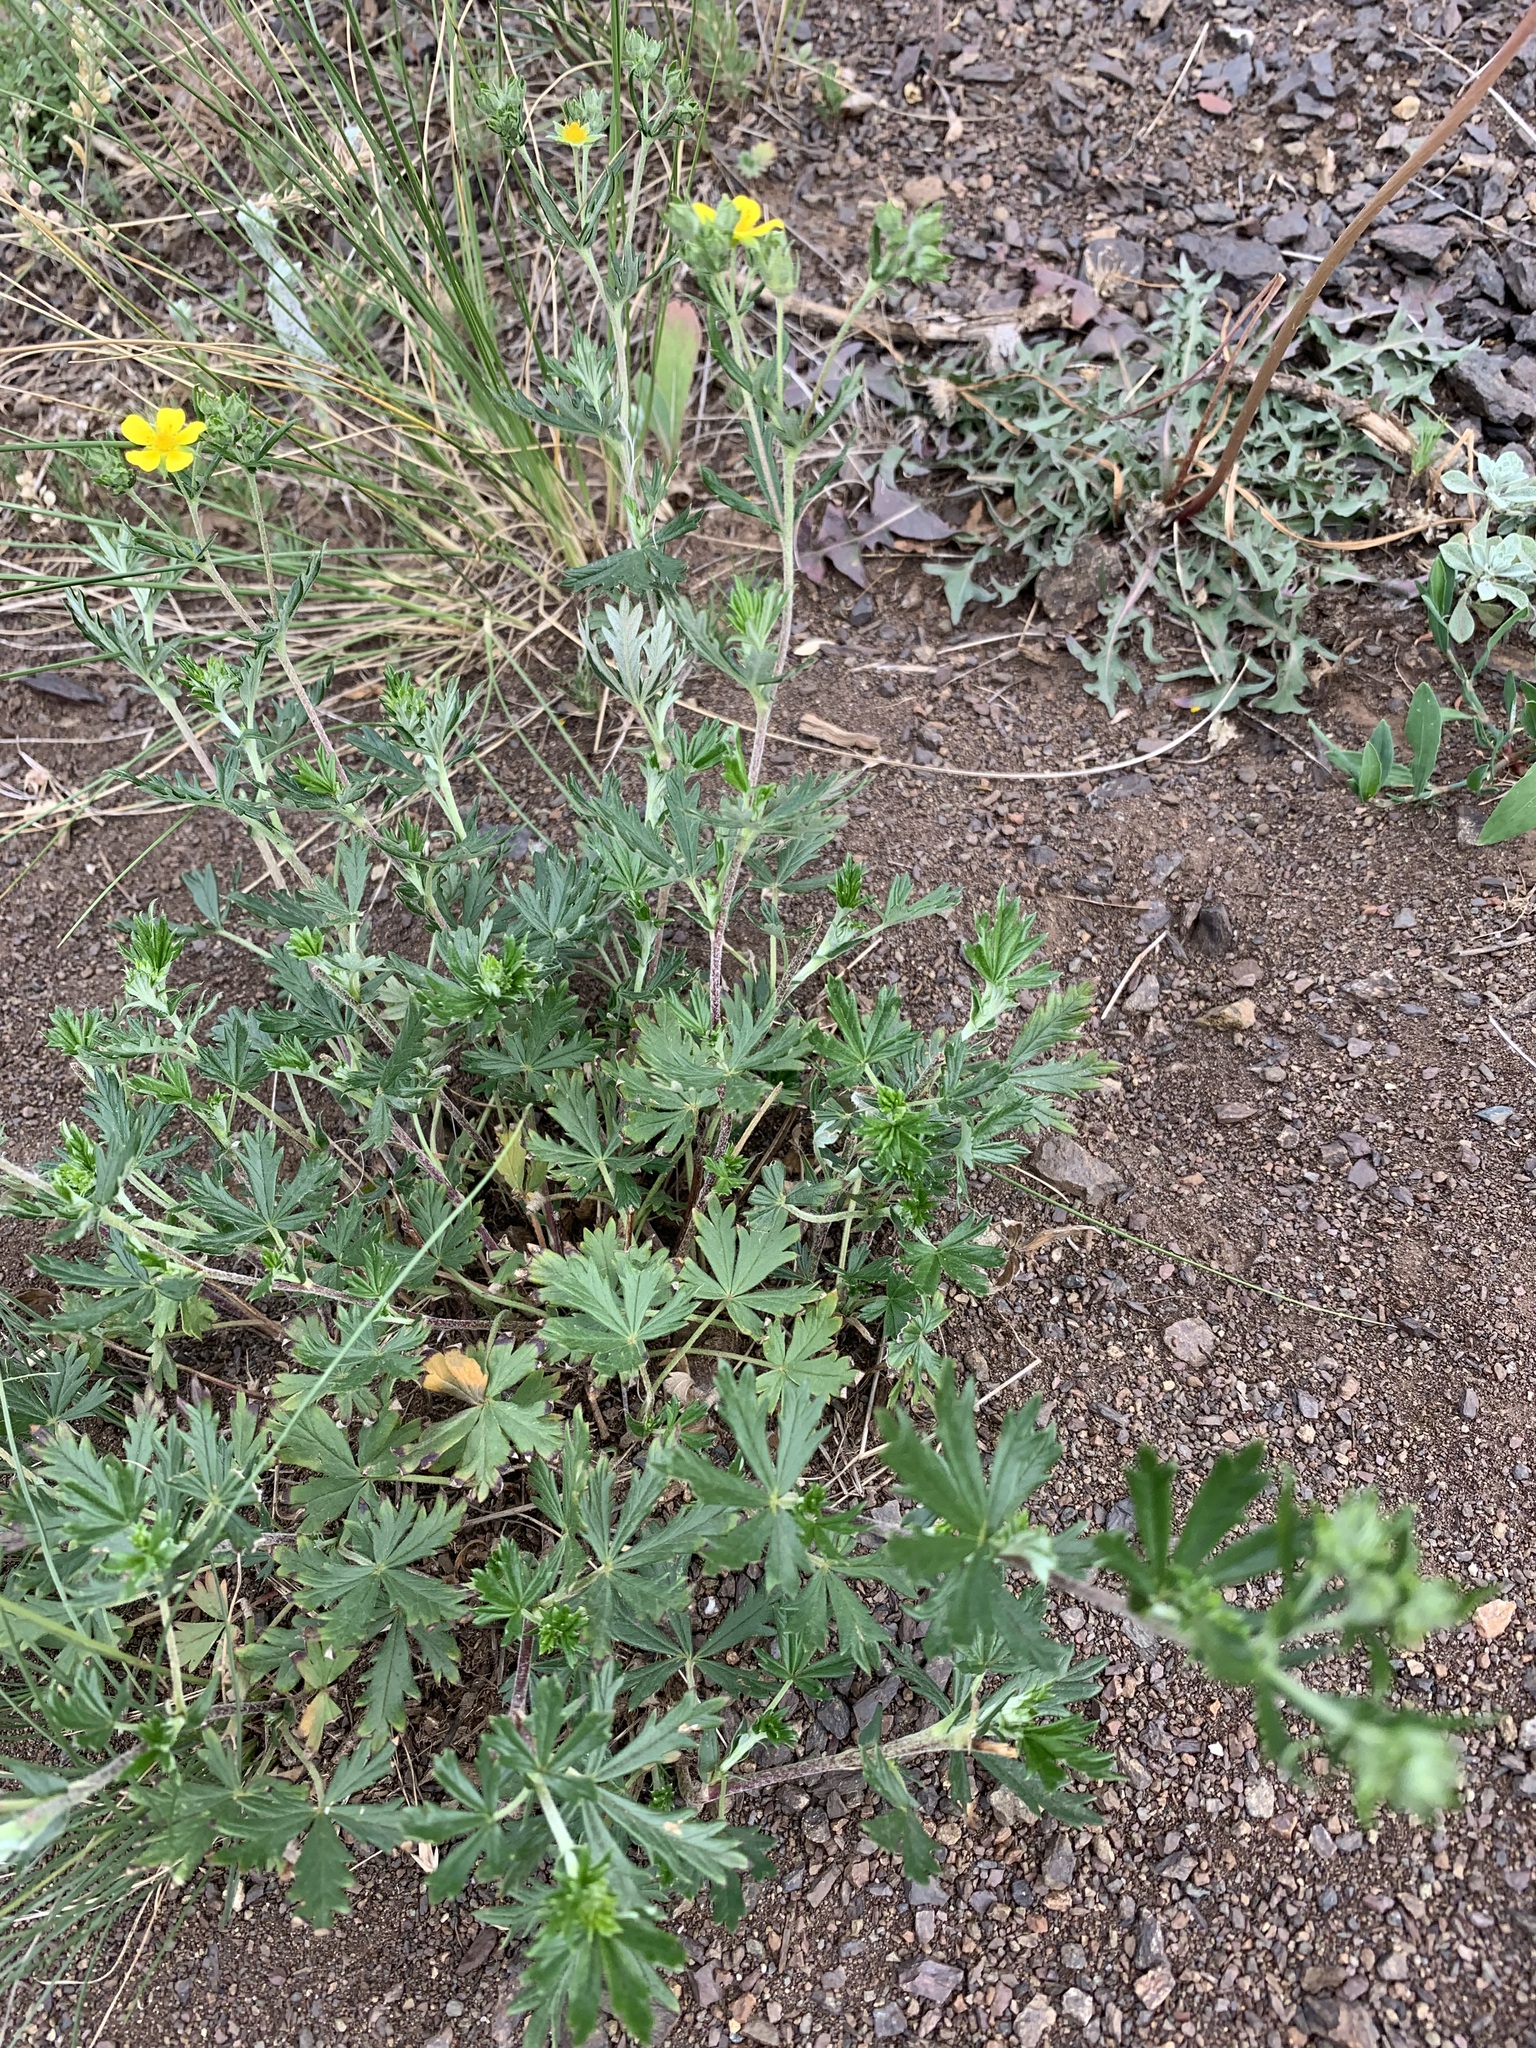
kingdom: Plantae
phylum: Tracheophyta
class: Magnoliopsida
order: Rosales
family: Rosaceae
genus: Potentilla
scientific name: Potentilla argentea
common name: Hoary cinquefoil
